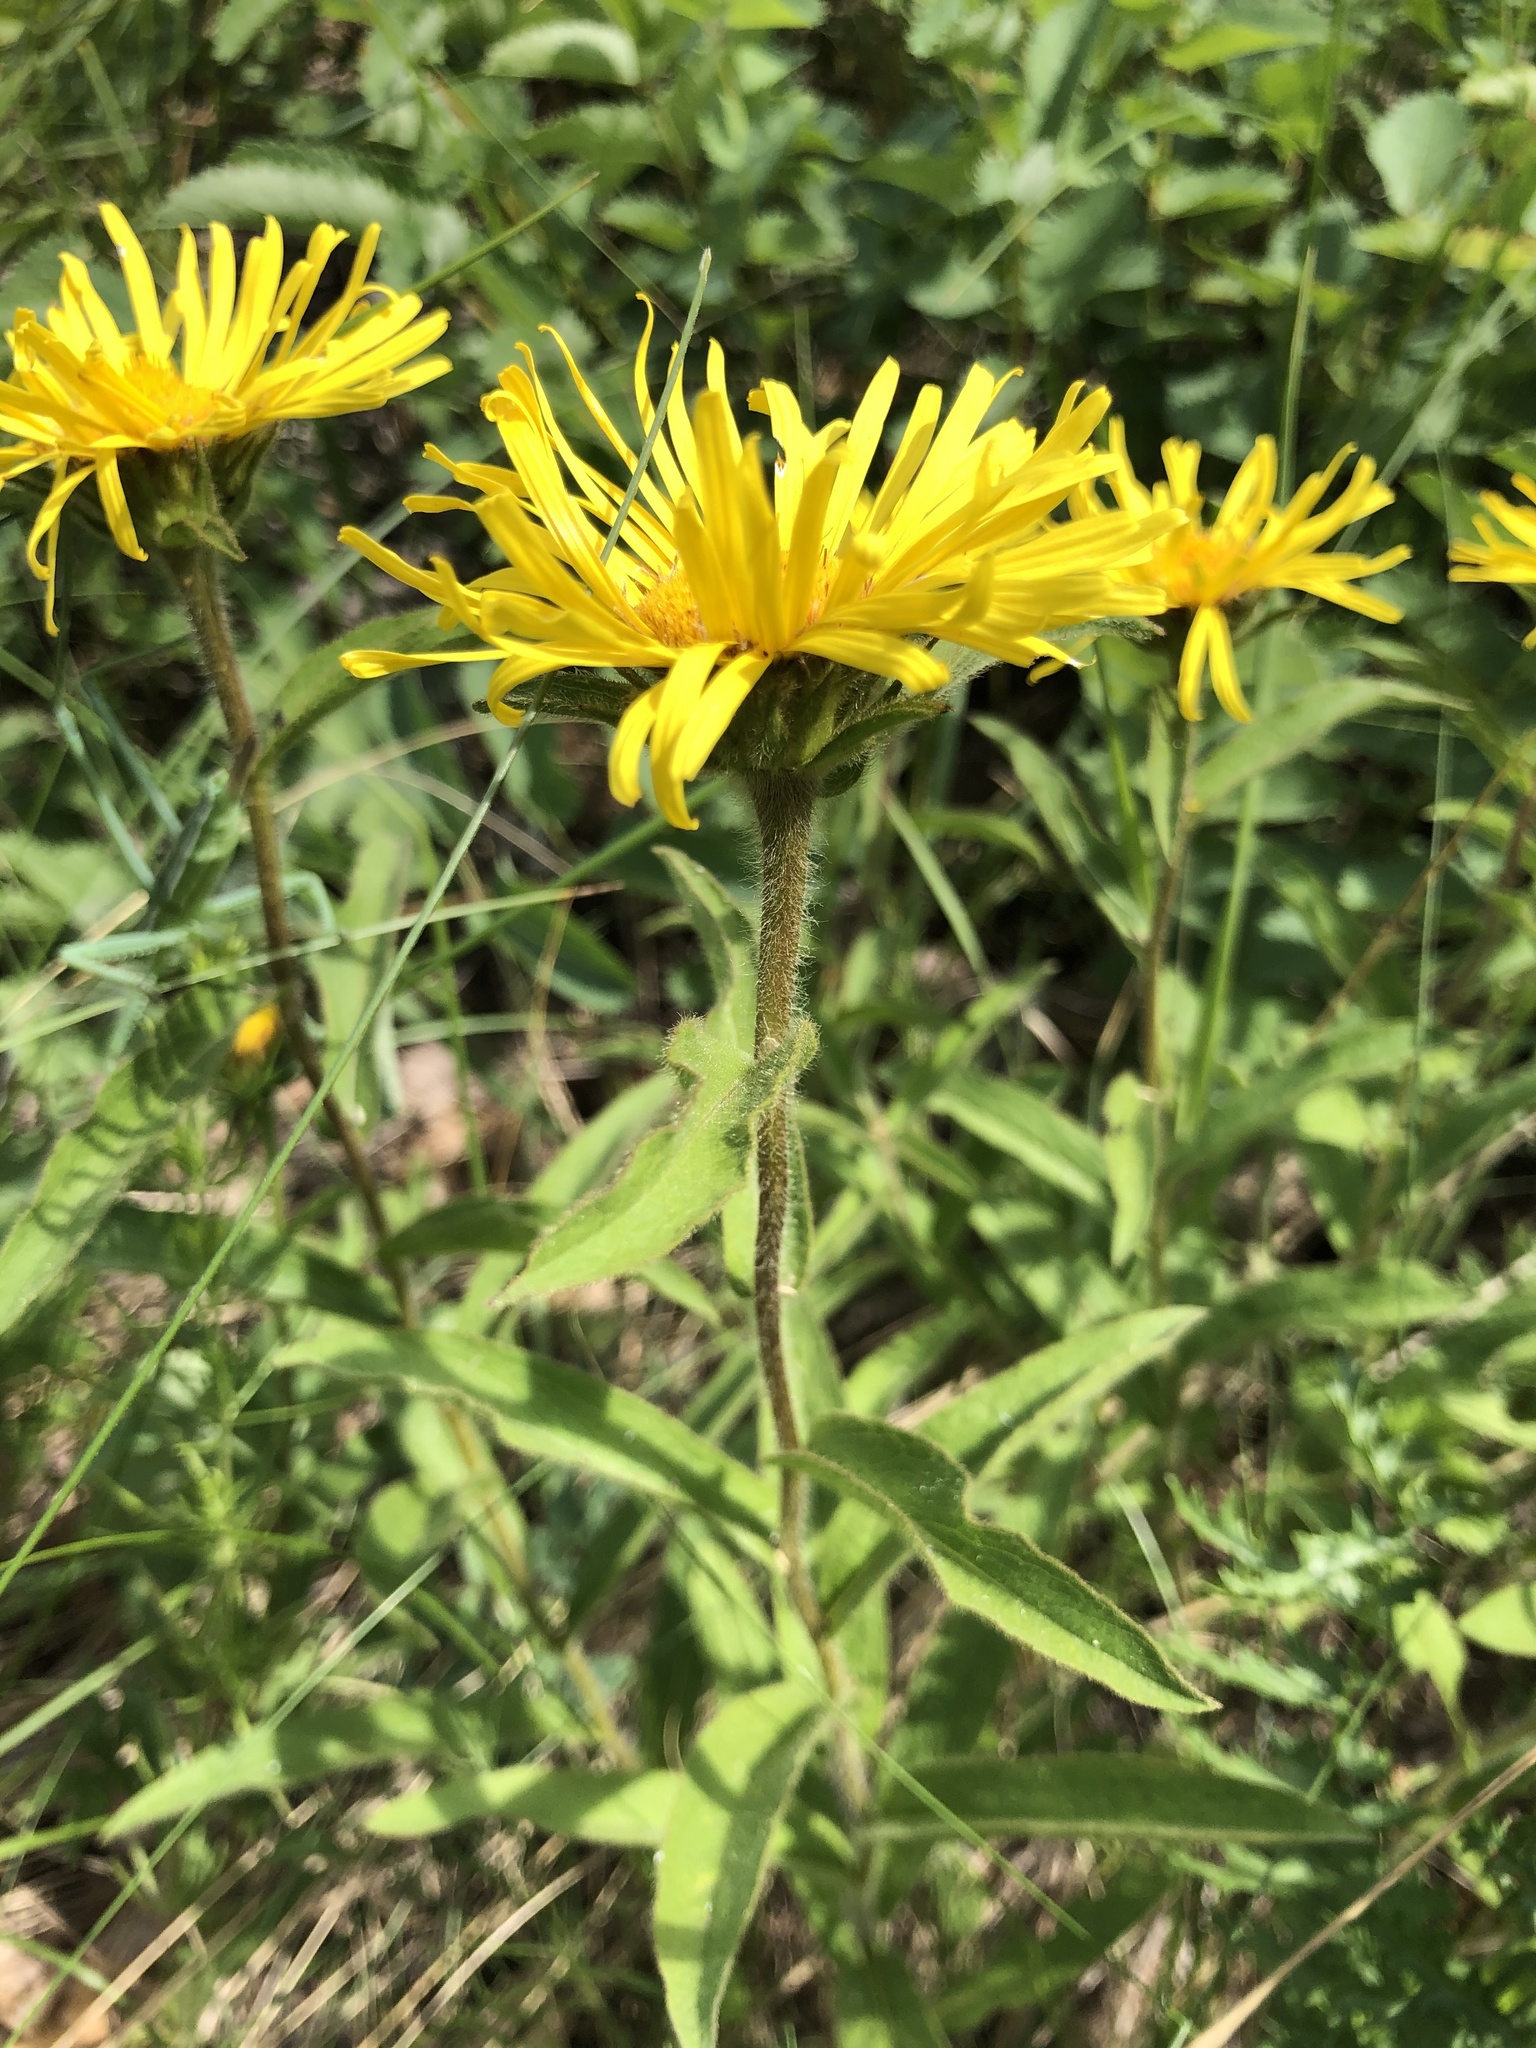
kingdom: Plantae
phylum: Tracheophyta
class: Magnoliopsida
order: Asterales
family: Asteraceae
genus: Pentanema
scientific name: Pentanema hirtum
